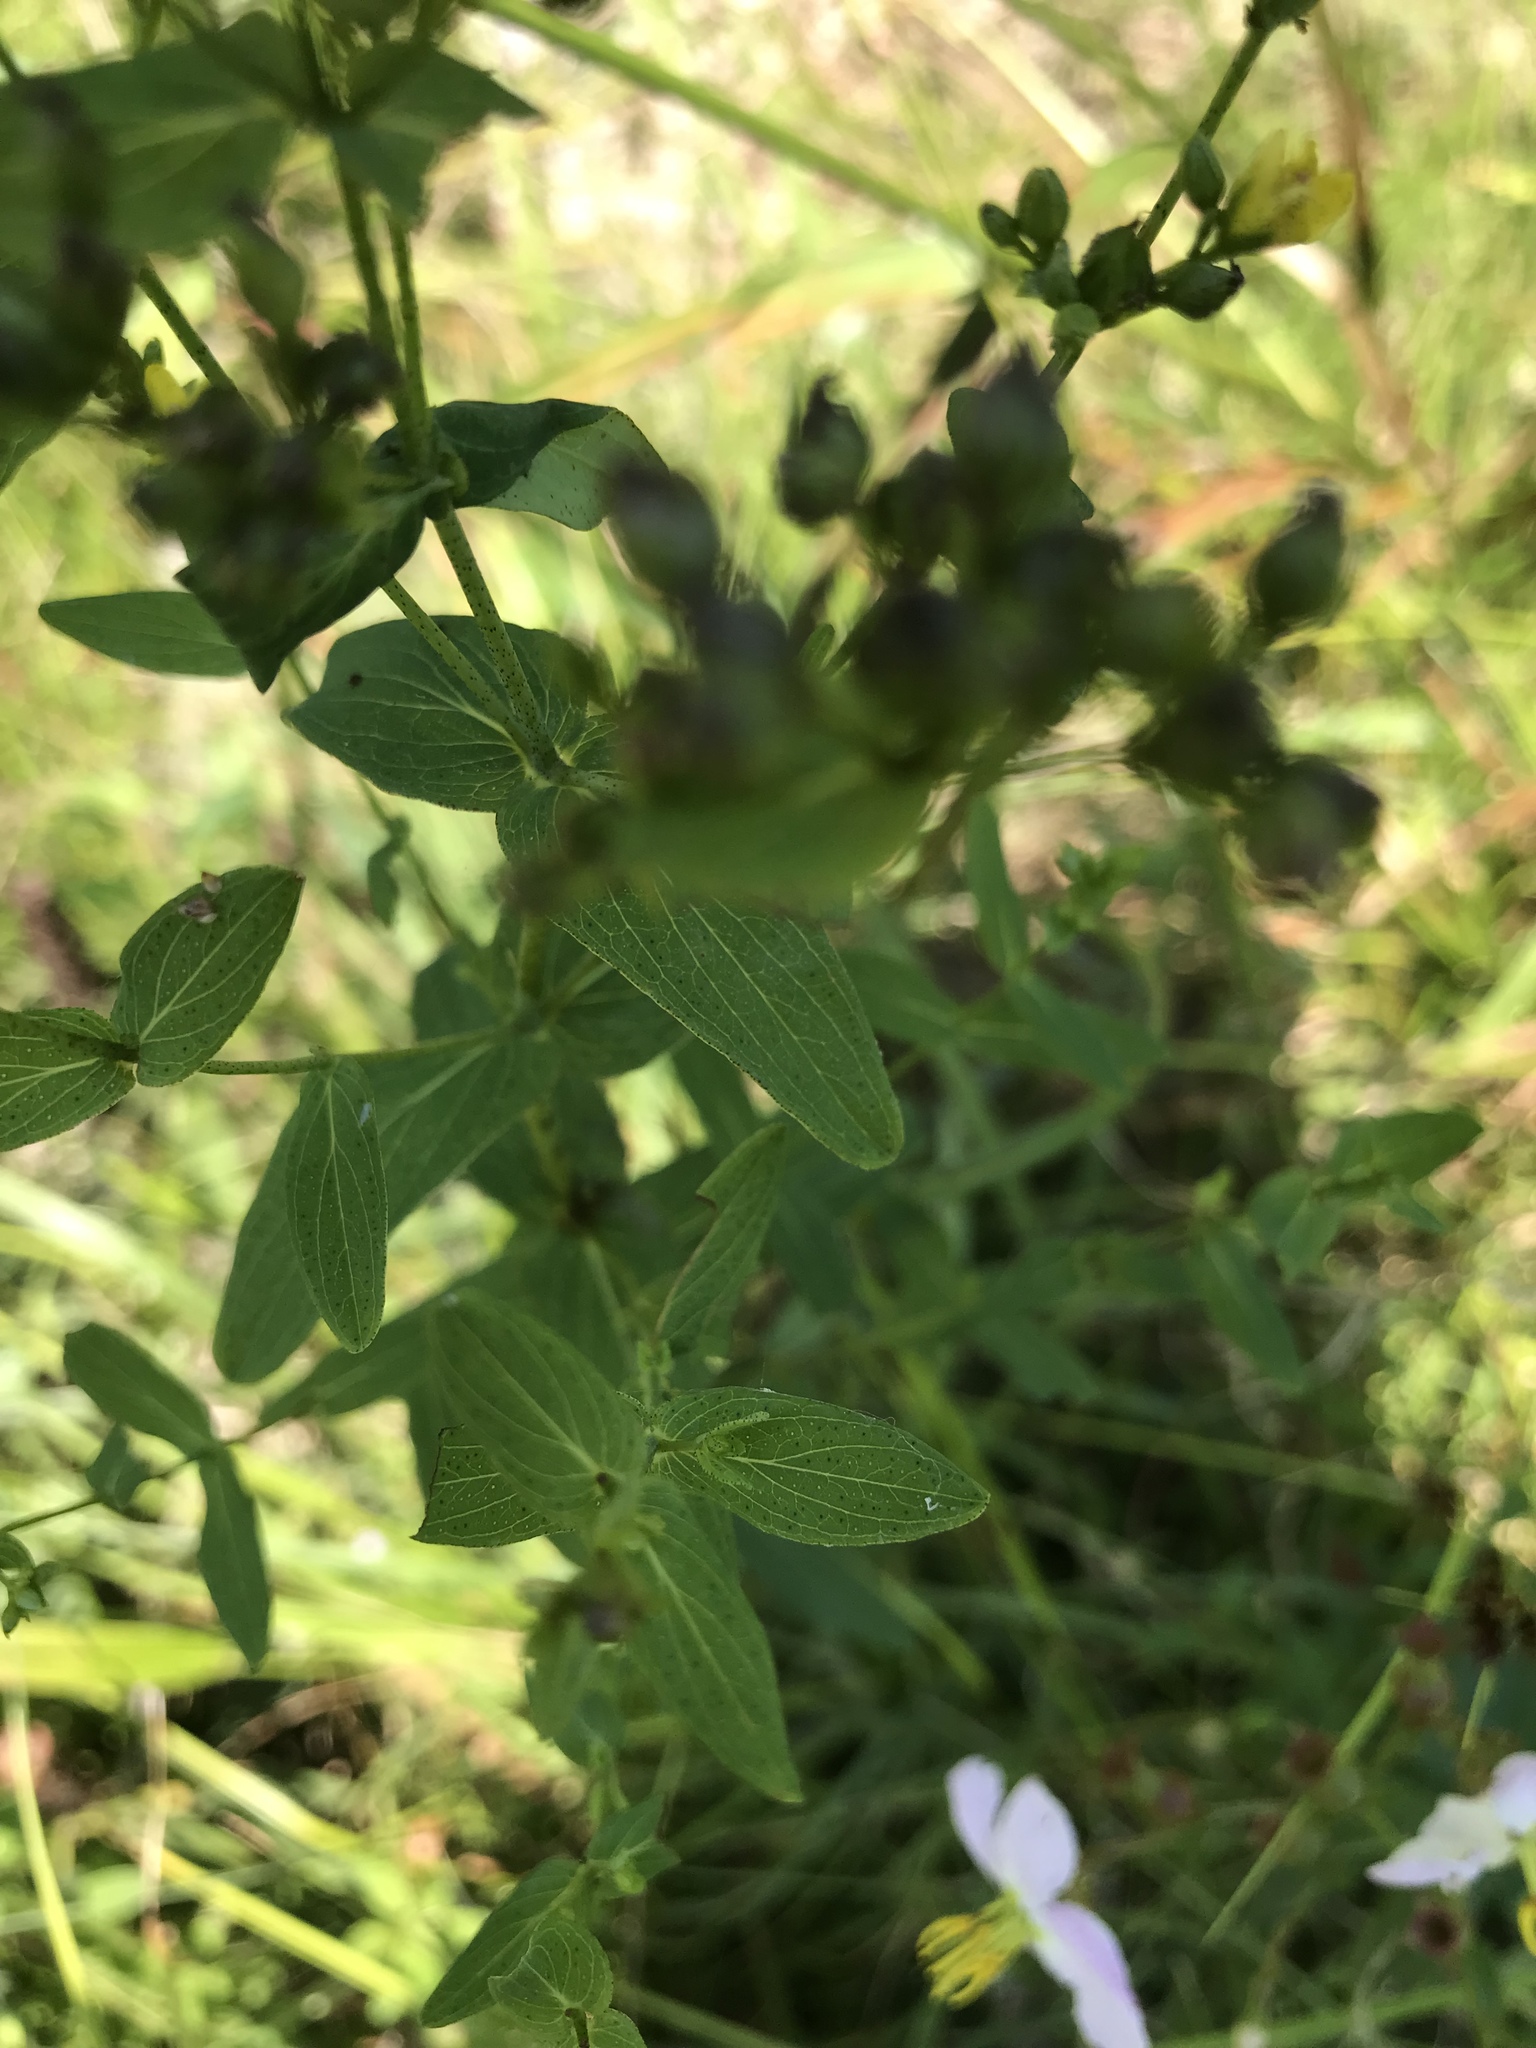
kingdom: Plantae
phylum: Tracheophyta
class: Magnoliopsida
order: Malpighiales
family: Hypericaceae
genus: Hypericum
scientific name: Hypericum punctatum
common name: Spotted st. john's-wort
